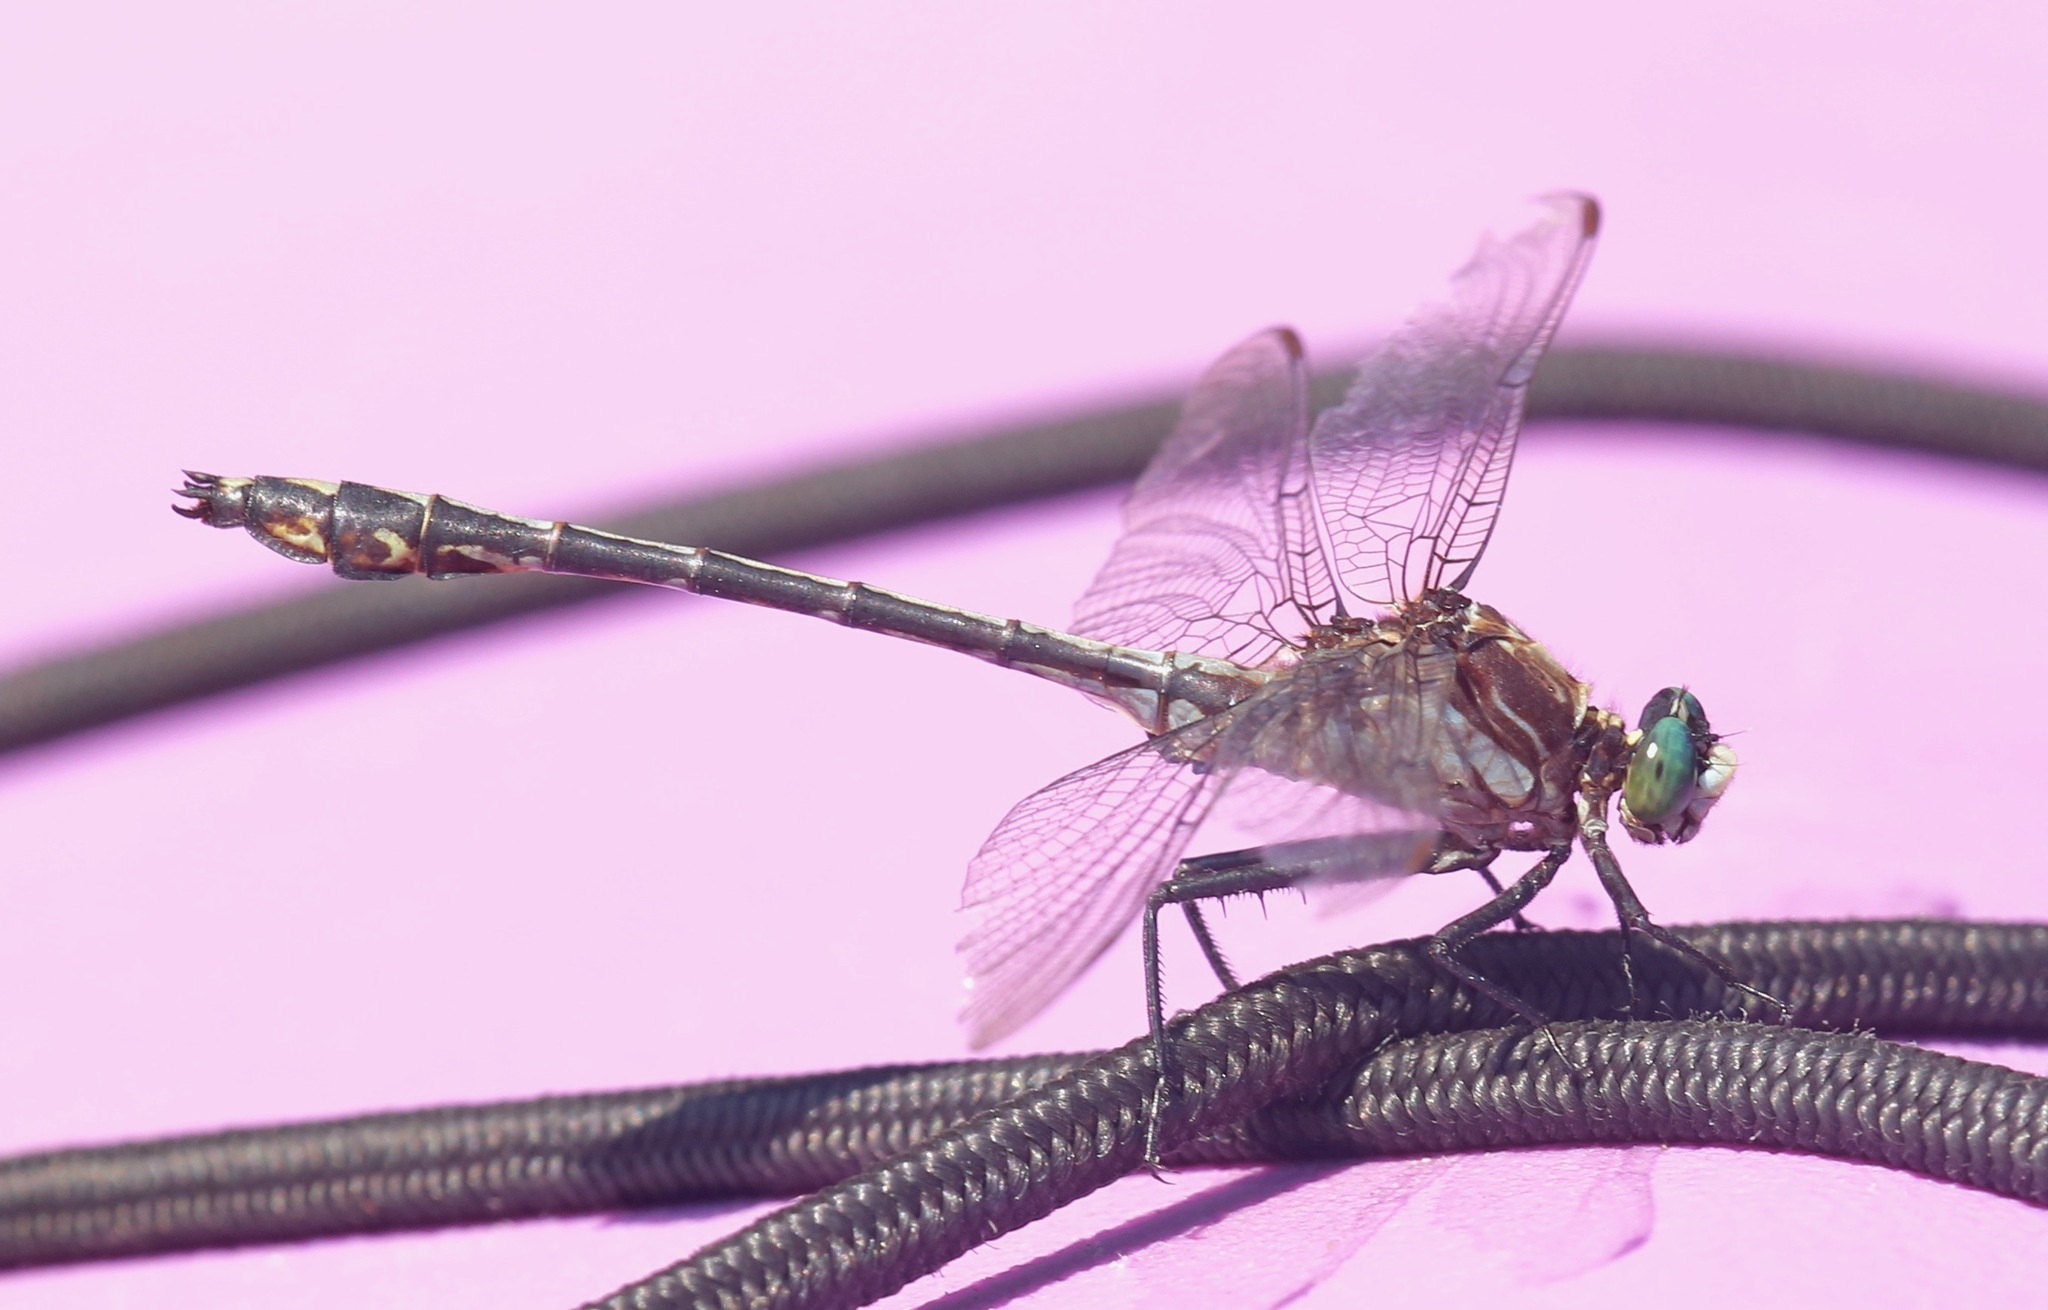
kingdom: Animalia
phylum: Arthropoda
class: Insecta
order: Odonata
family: Gomphidae
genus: Dromogomphus
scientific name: Dromogomphus spinosus
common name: Black-shouldered spinyleg
